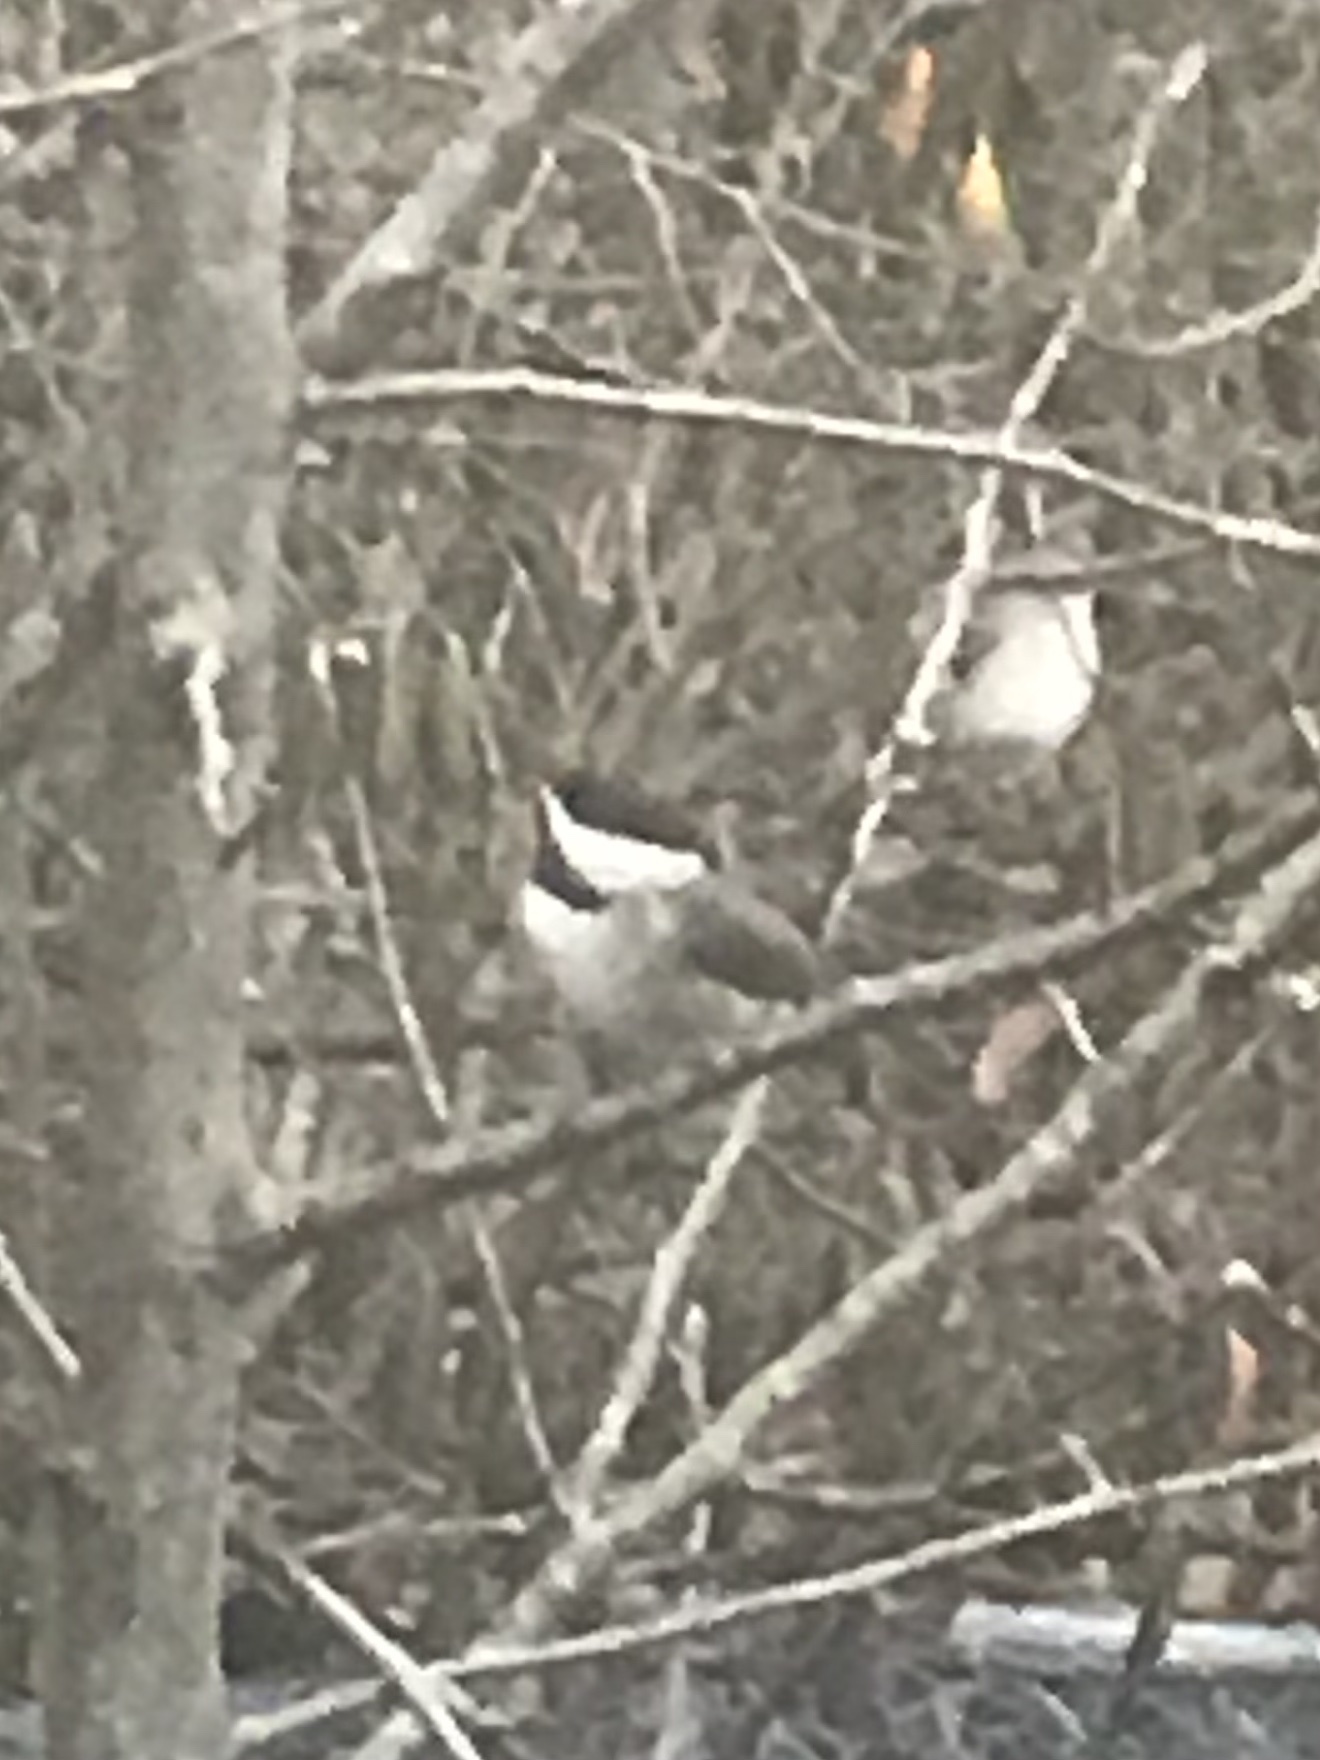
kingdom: Animalia
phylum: Chordata
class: Aves
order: Passeriformes
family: Paridae
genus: Poecile
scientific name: Poecile carolinensis
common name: Carolina chickadee
